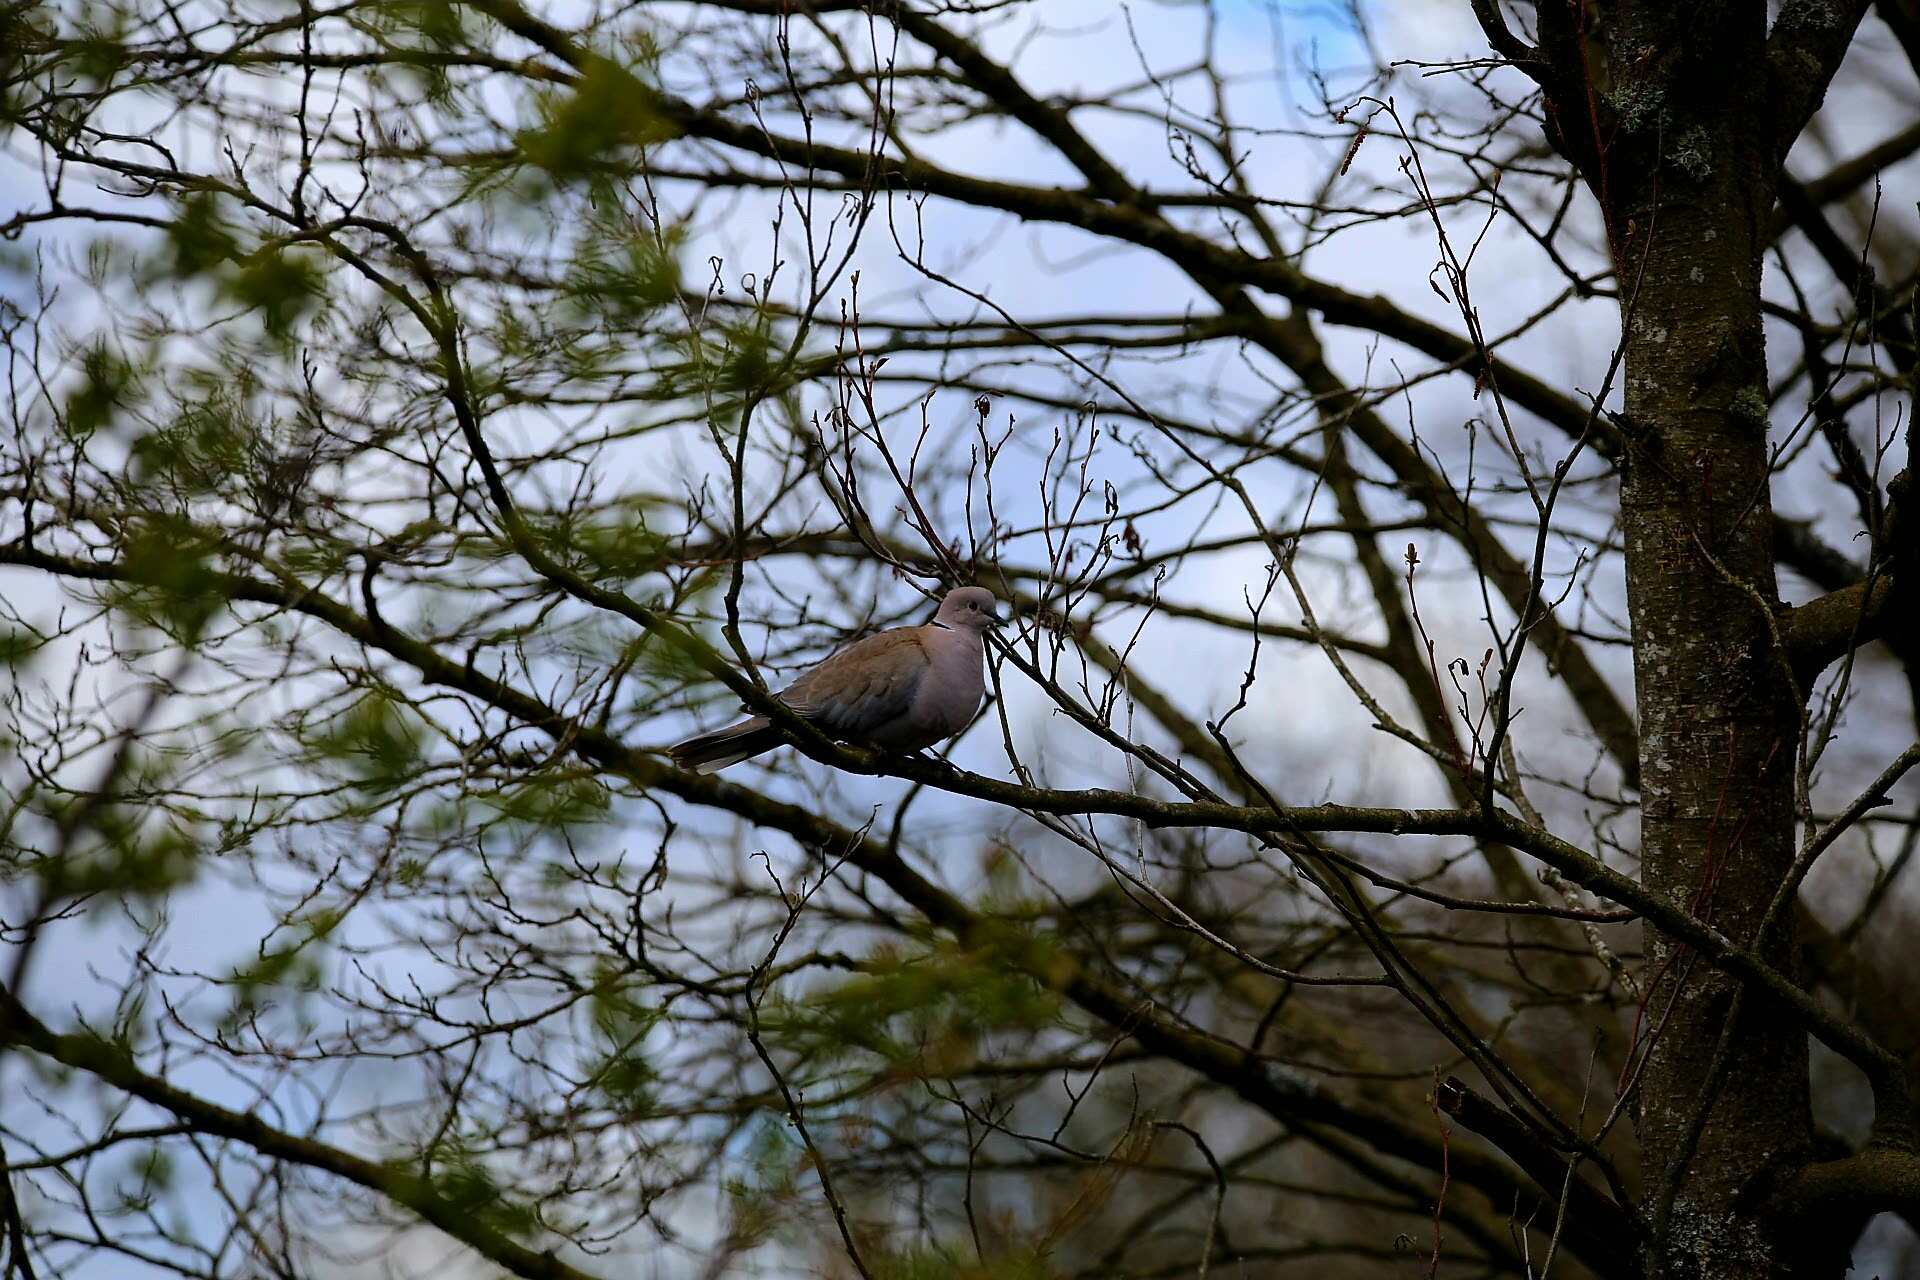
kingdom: Animalia
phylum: Chordata
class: Aves
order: Columbiformes
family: Columbidae
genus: Streptopelia
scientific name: Streptopelia decaocto
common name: Eurasian collared dove
